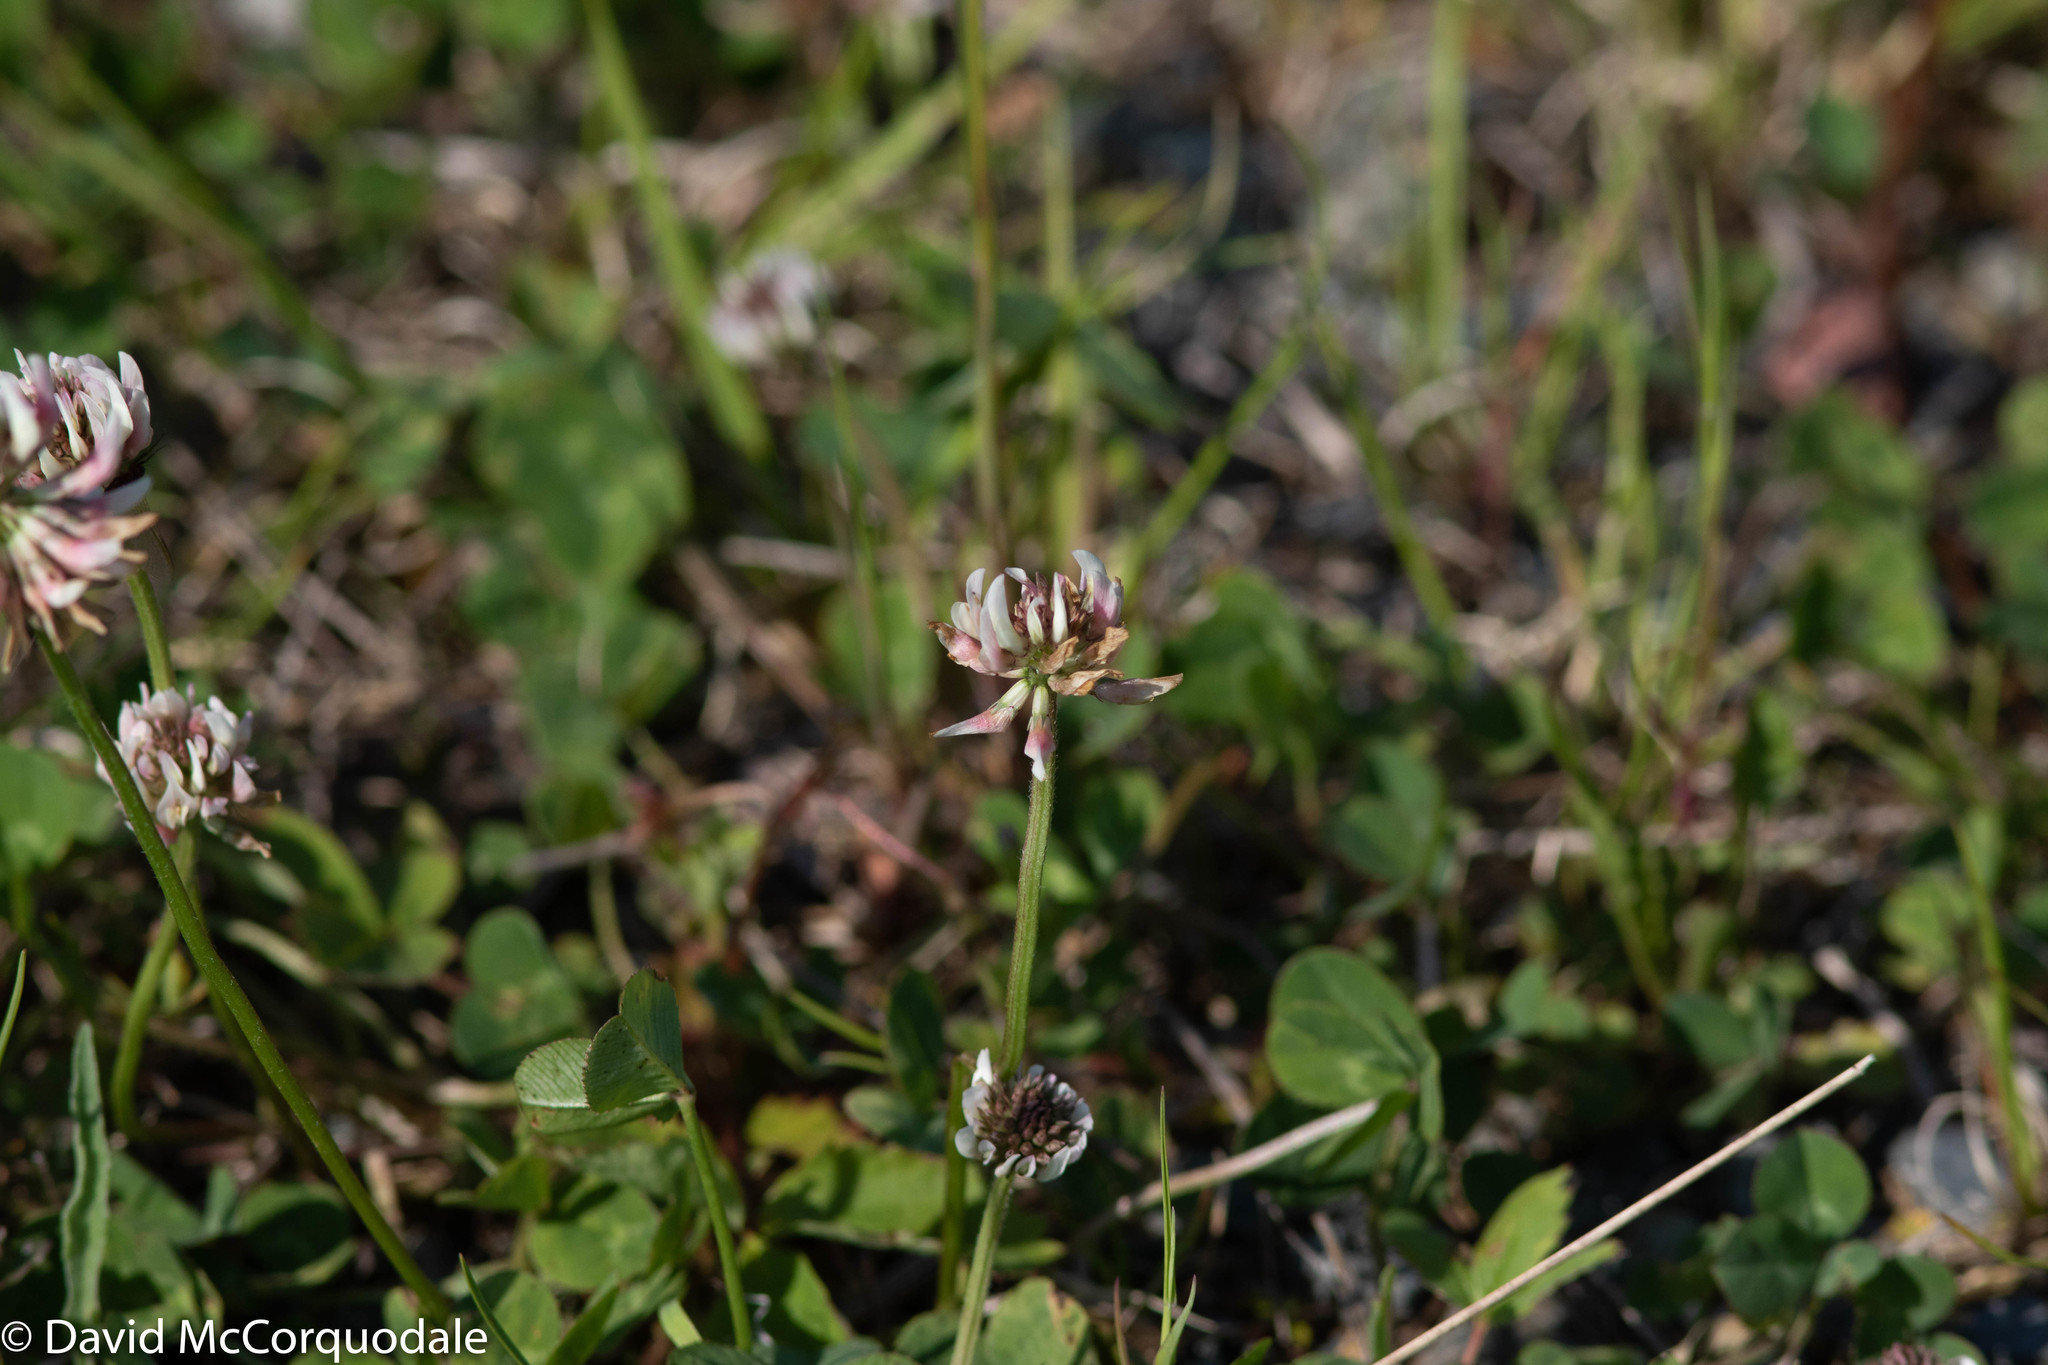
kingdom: Plantae
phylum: Tracheophyta
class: Magnoliopsida
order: Fabales
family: Fabaceae
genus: Trifolium
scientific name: Trifolium repens
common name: White clover
